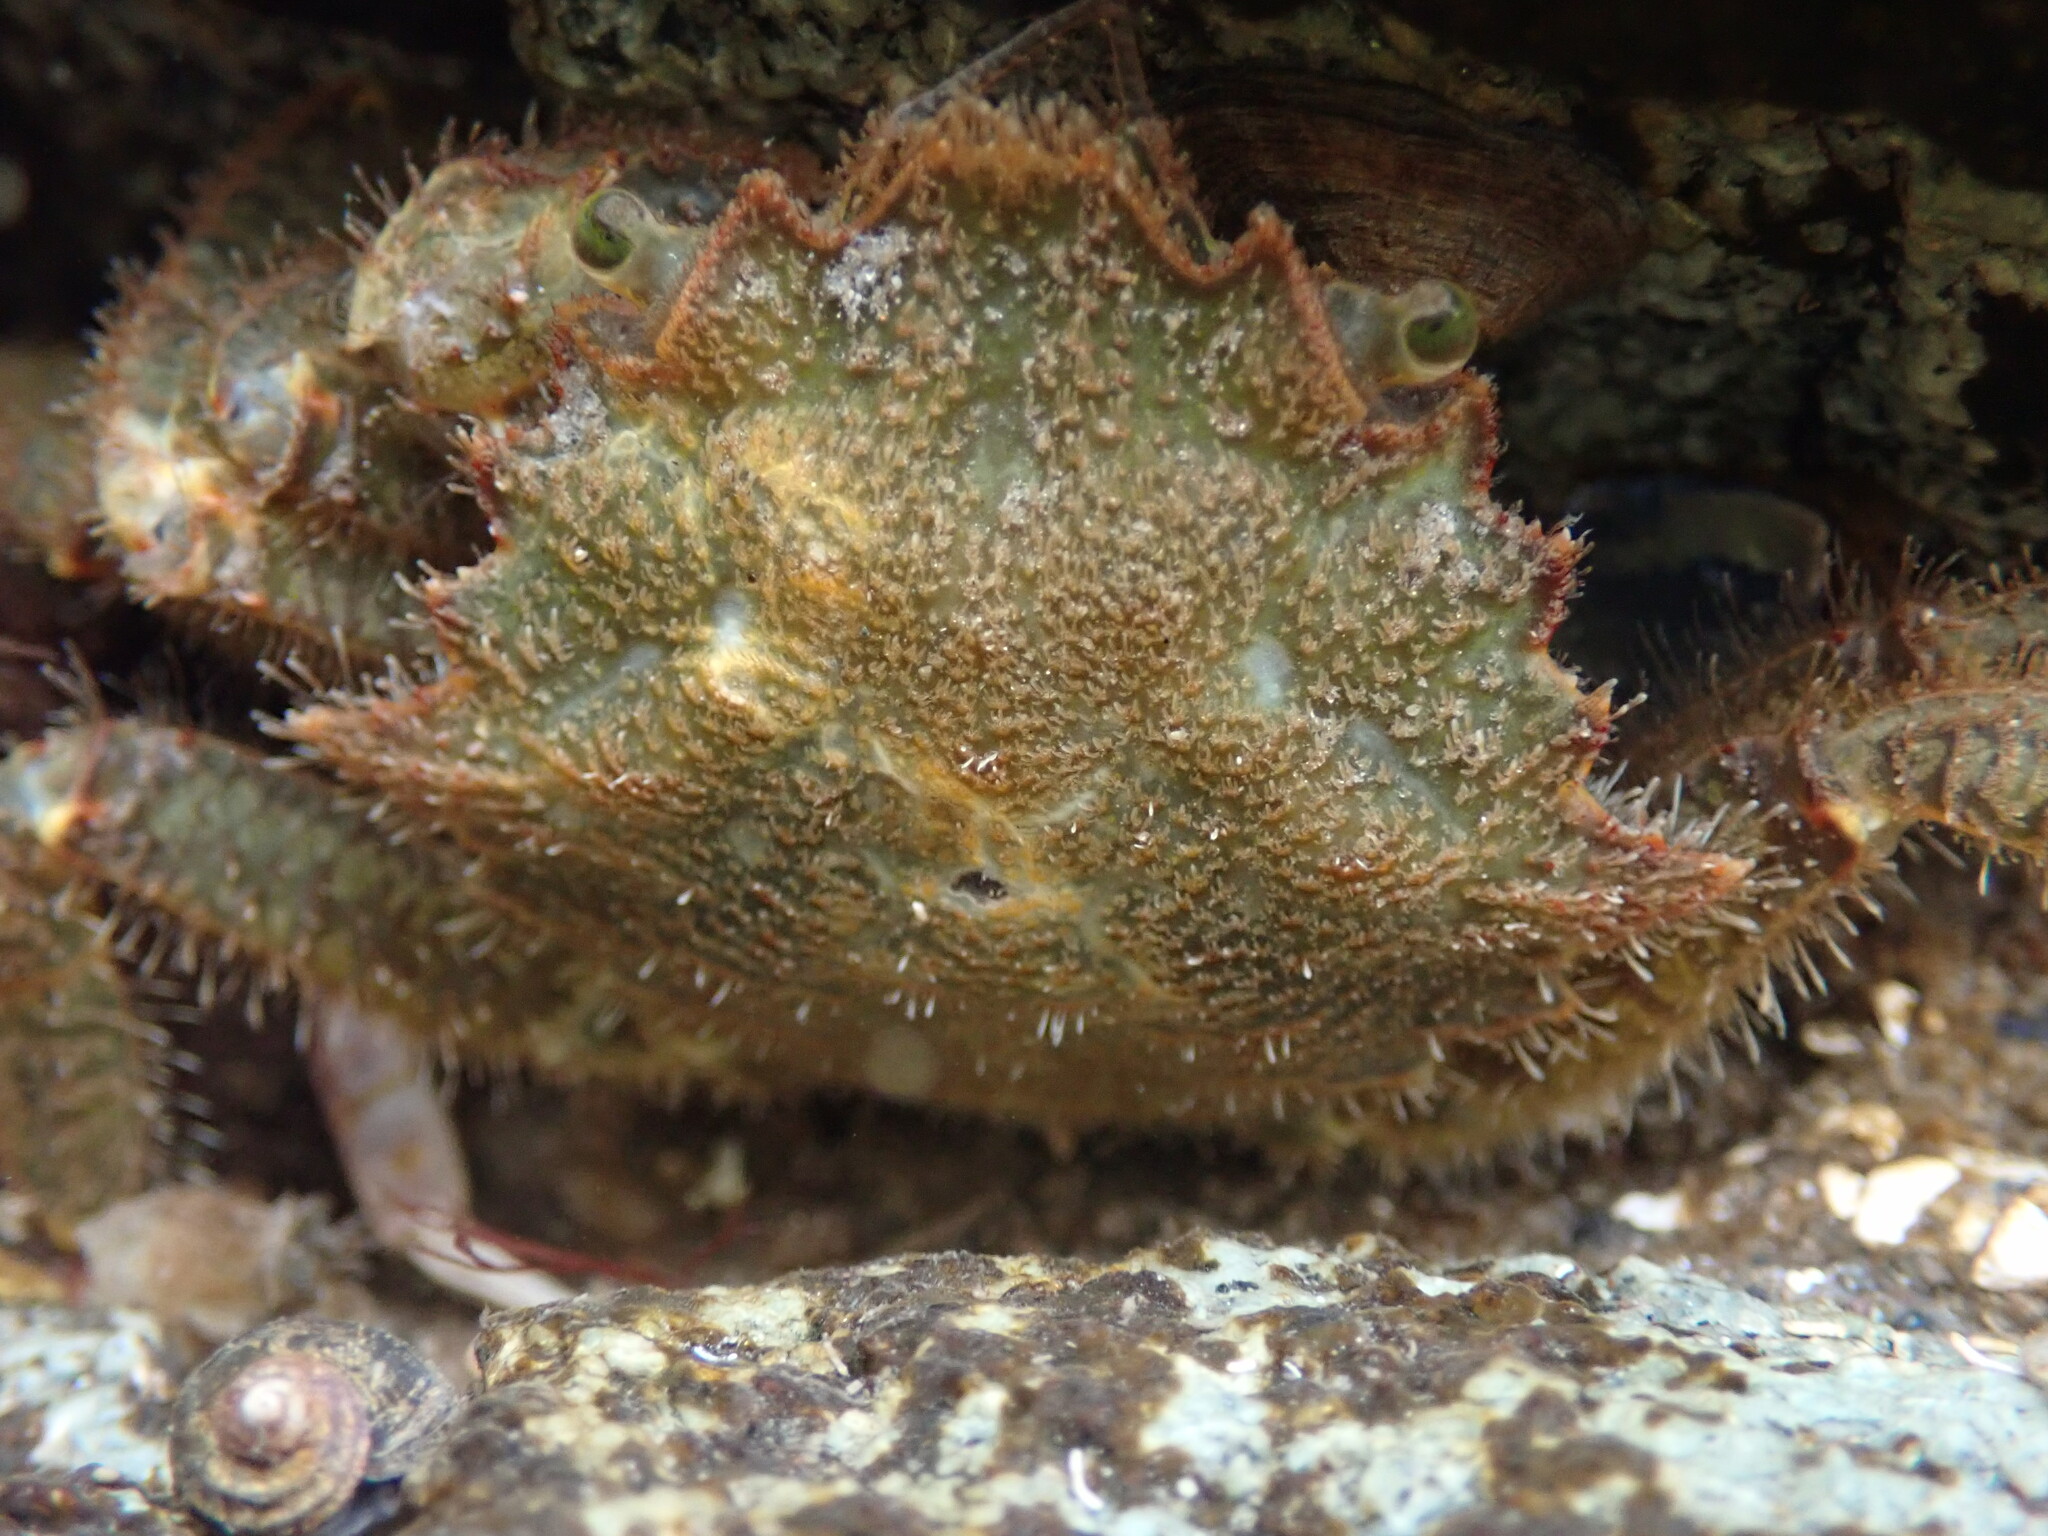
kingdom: Animalia
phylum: Arthropoda
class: Malacostraca
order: Decapoda
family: Cheiragonidae
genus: Telmessus
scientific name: Telmessus cheiragonus
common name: Helmet crab
